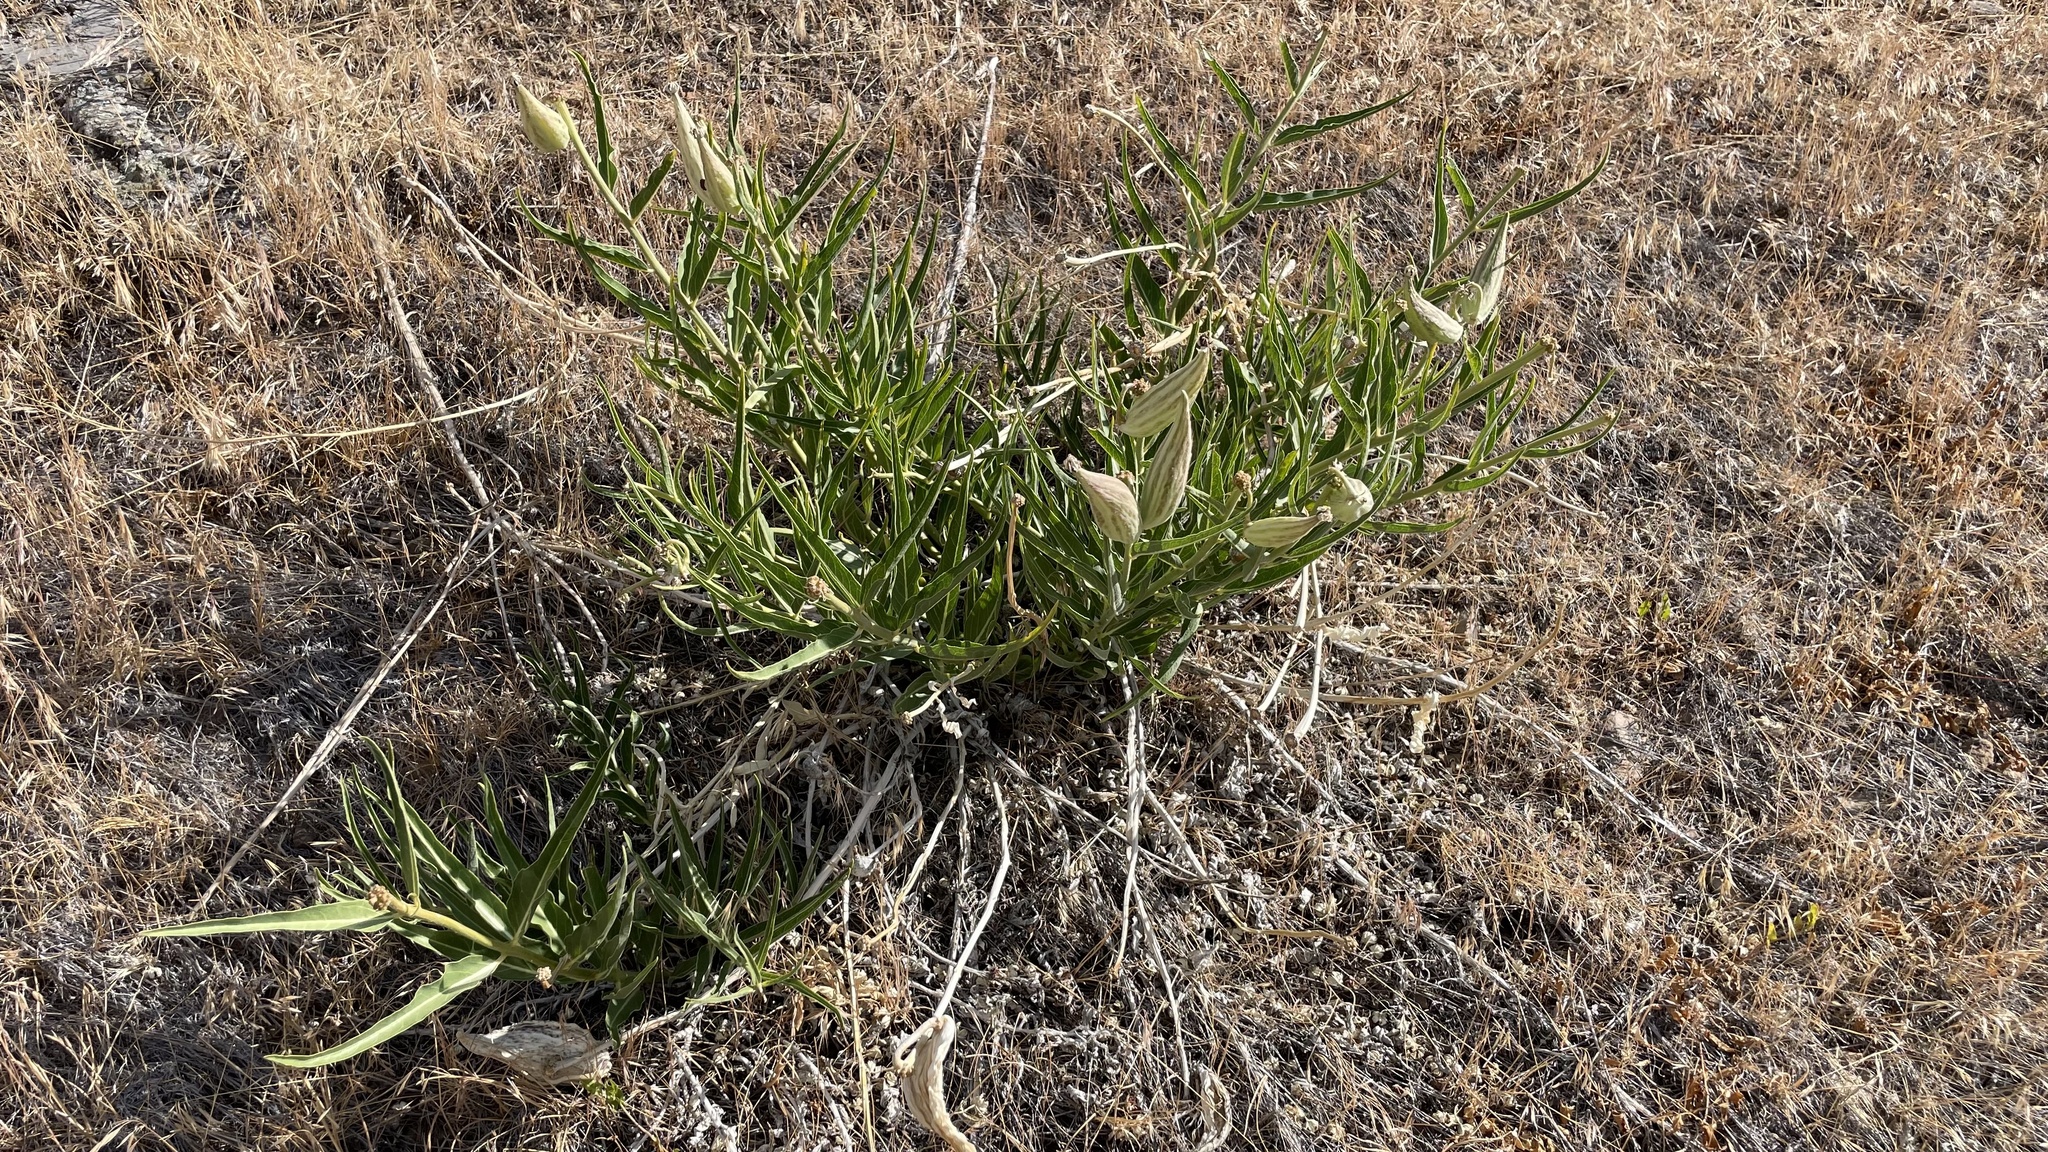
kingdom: Plantae
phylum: Tracheophyta
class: Magnoliopsida
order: Gentianales
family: Apocynaceae
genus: Asclepias
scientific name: Asclepias asperula
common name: Antelope horns
